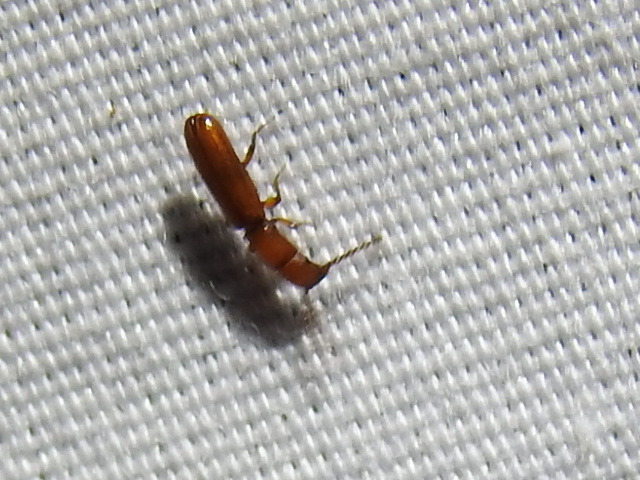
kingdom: Animalia
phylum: Arthropoda
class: Insecta
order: Coleoptera
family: Passandridae
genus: Taphroscelidia
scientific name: Taphroscelidia linearis
